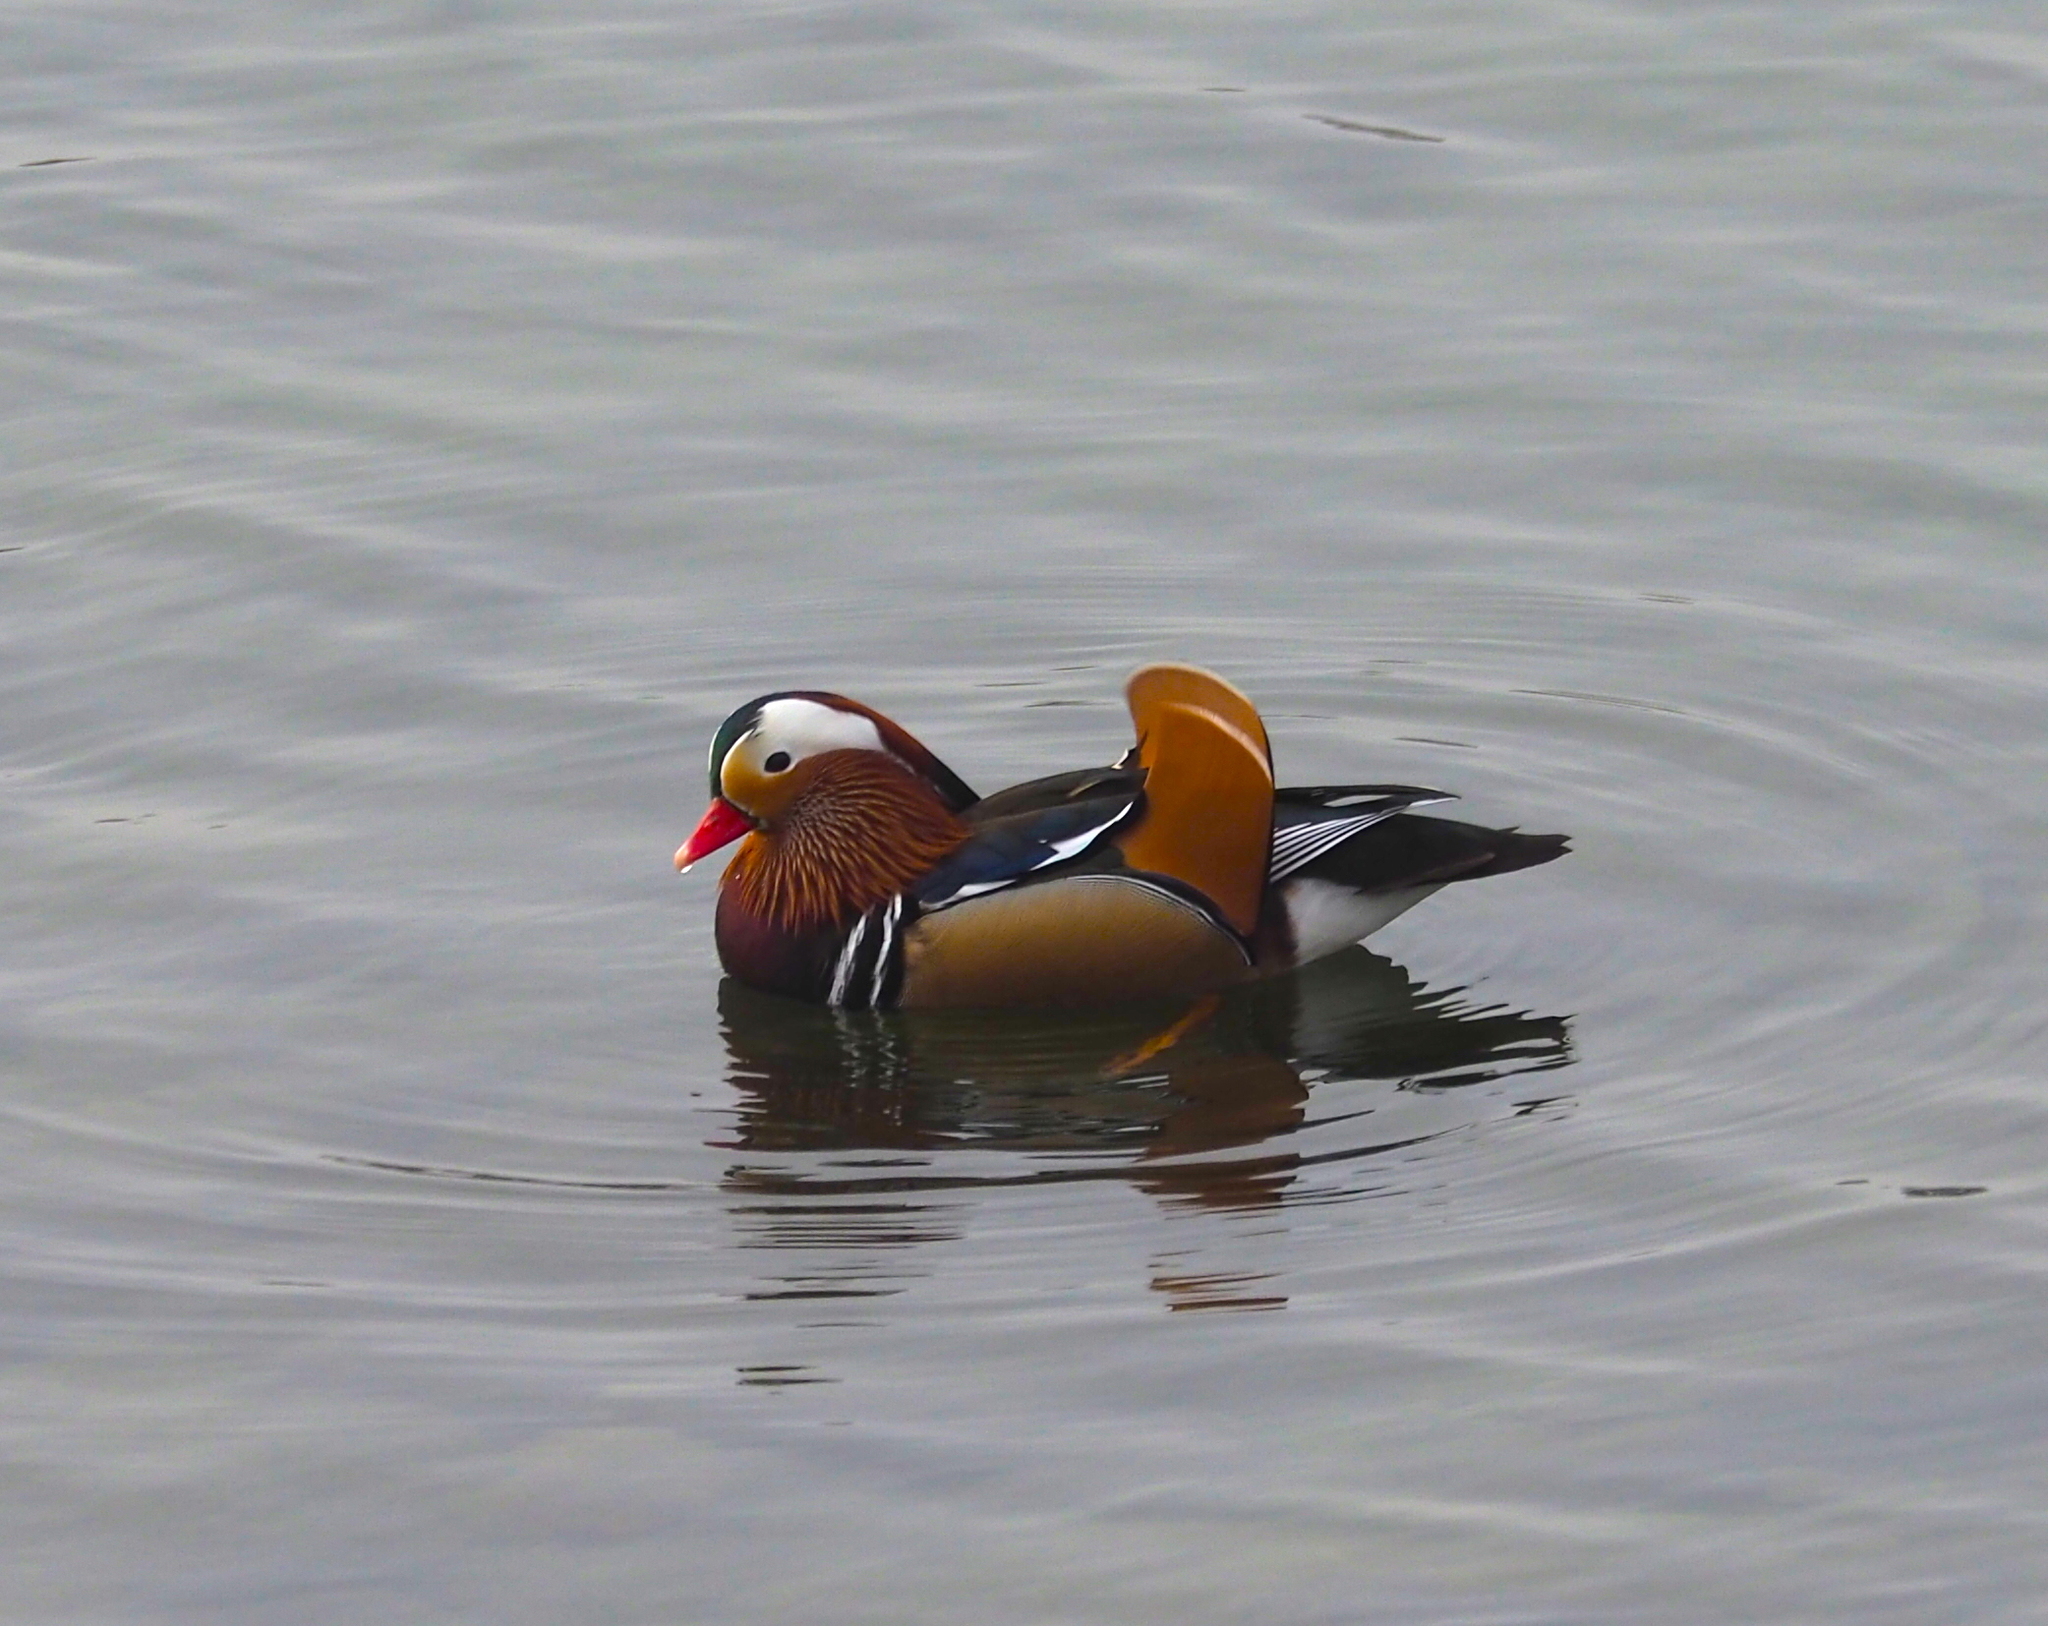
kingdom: Animalia
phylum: Chordata
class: Aves
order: Anseriformes
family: Anatidae
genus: Aix
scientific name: Aix galericulata
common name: Mandarin duck
